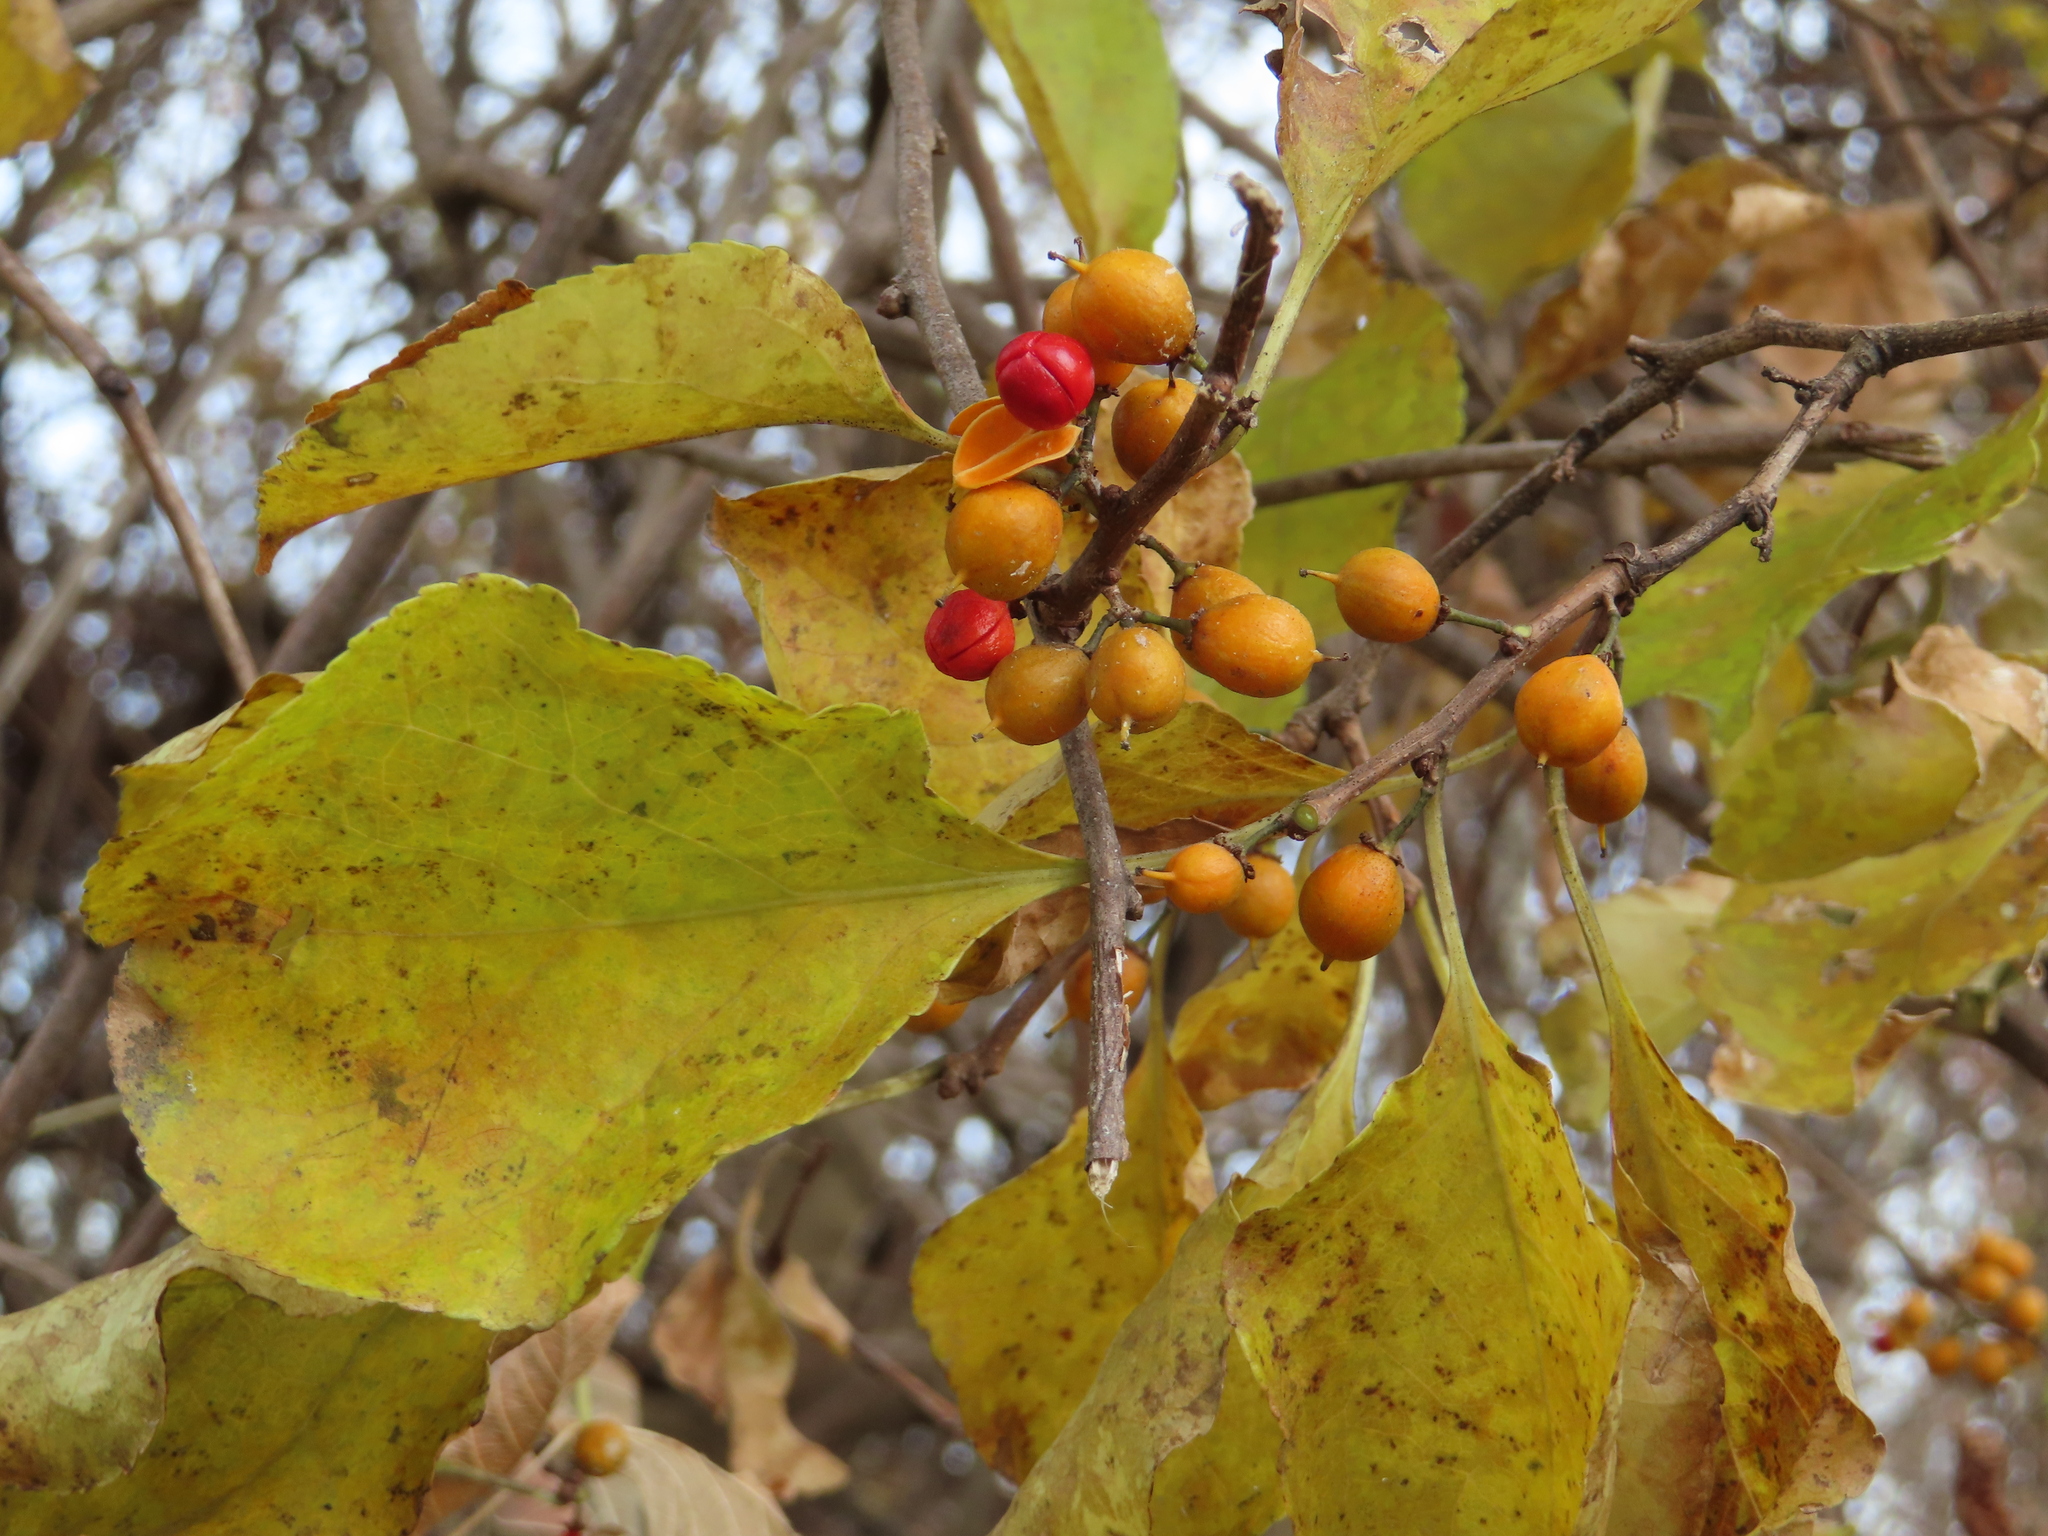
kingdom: Plantae
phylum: Tracheophyta
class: Magnoliopsida
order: Celastrales
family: Celastraceae
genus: Celastrus
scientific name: Celastrus orbiculatus
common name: Oriental bittersweet
